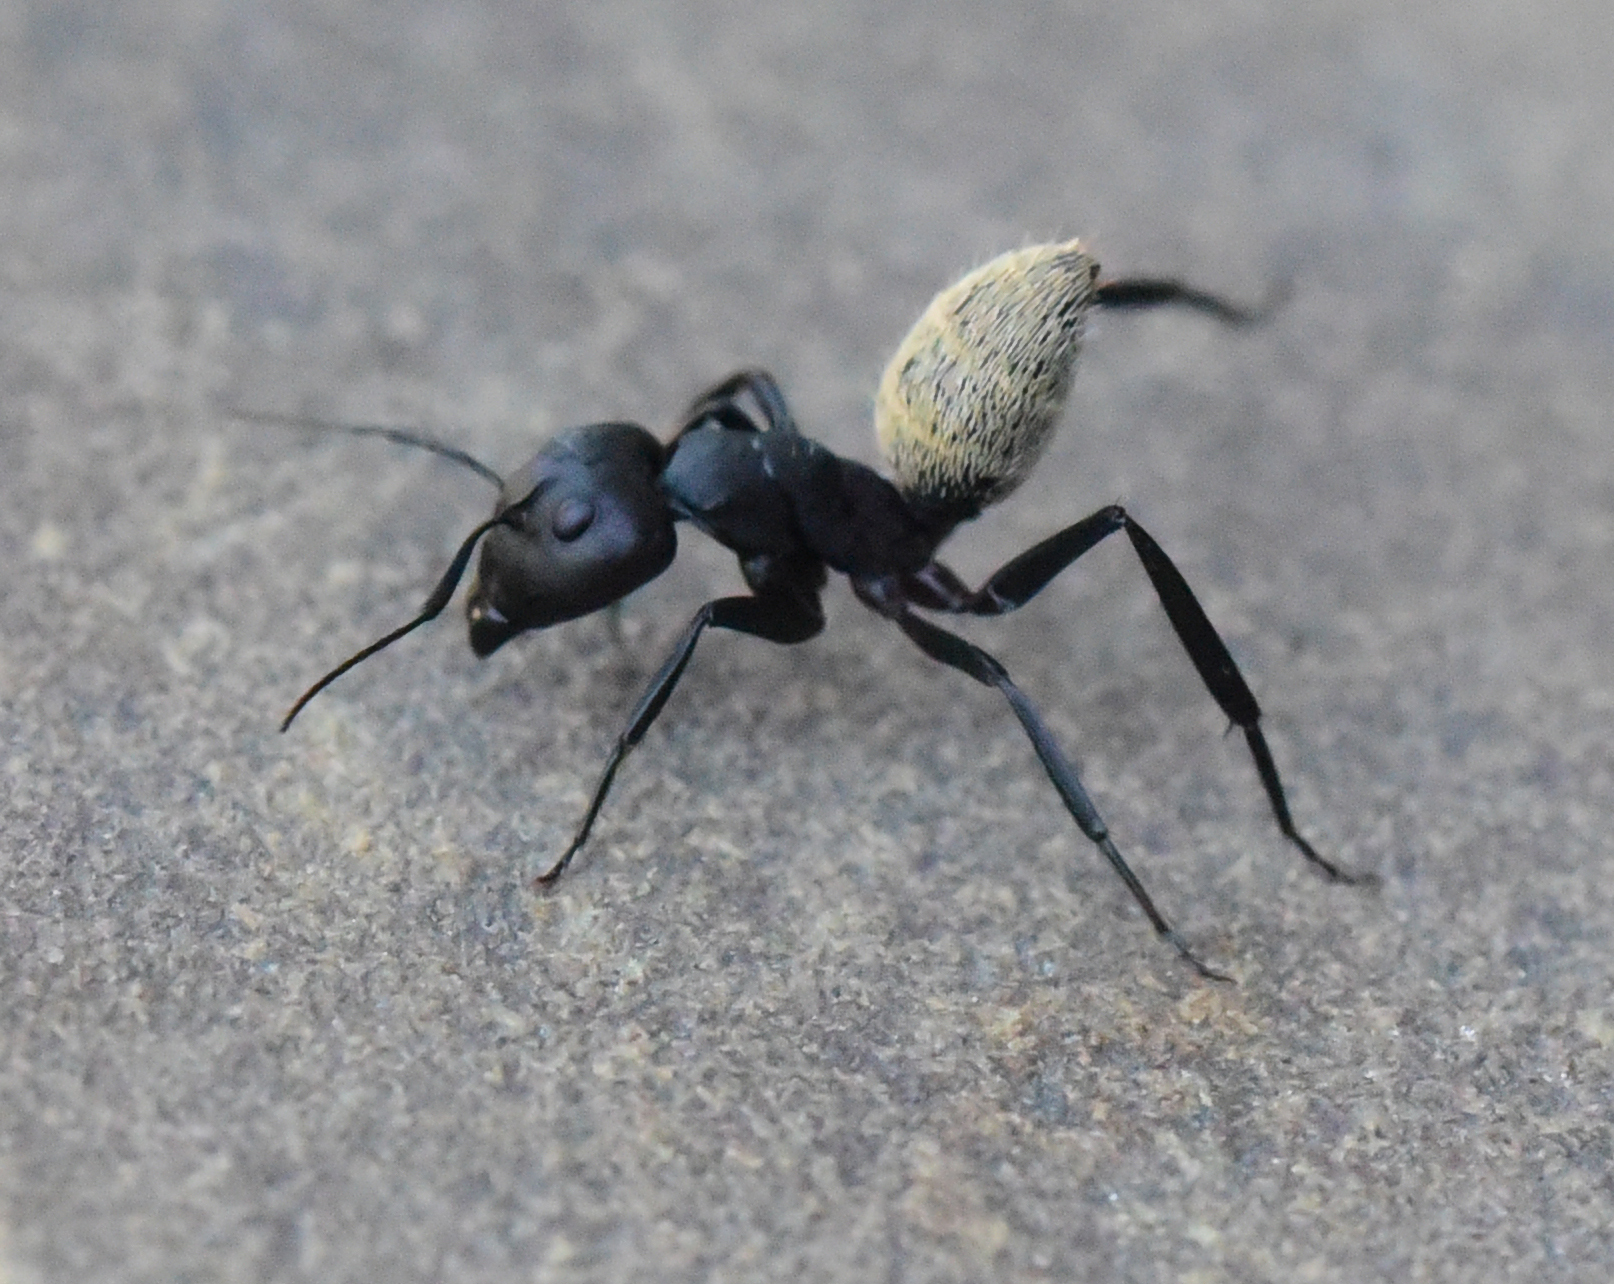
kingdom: Animalia
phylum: Arthropoda
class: Insecta
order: Hymenoptera
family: Formicidae
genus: Camponotus
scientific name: Camponotus fulvopilosus
